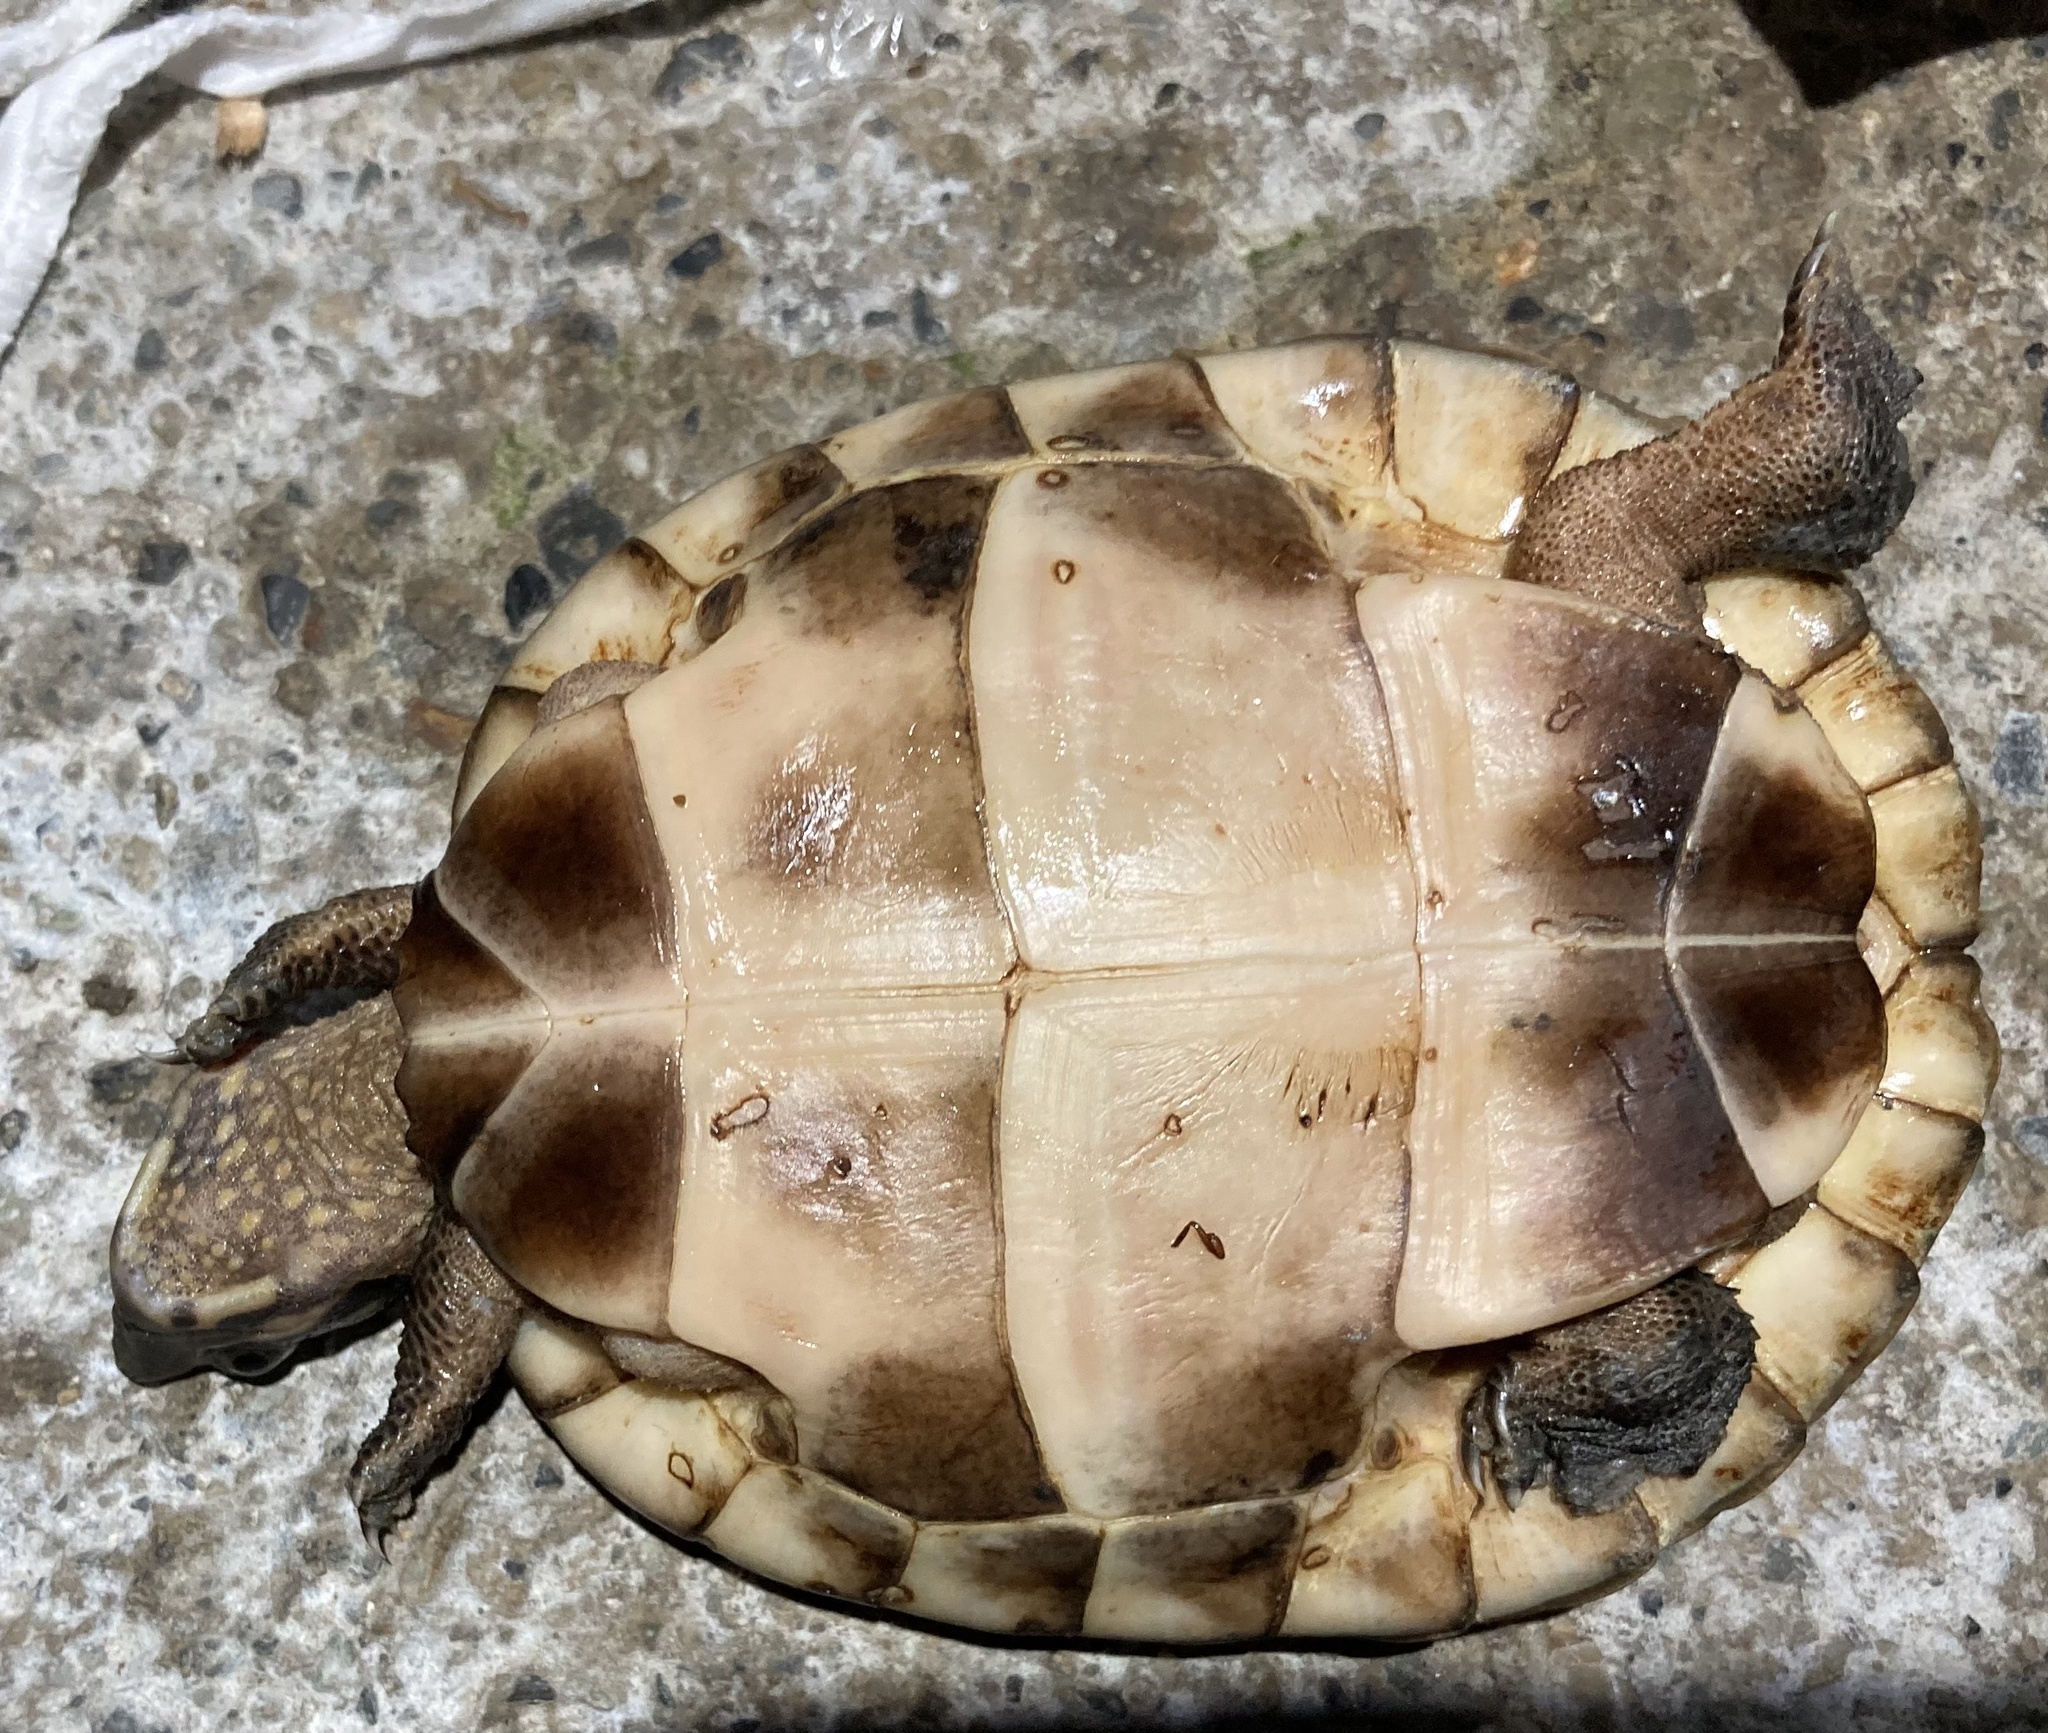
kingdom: Animalia
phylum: Chordata
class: Testudines
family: Geoemydidae
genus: Rhinoclemmys
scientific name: Rhinoclemmys nasuta
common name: Large-nosed wood turtle
